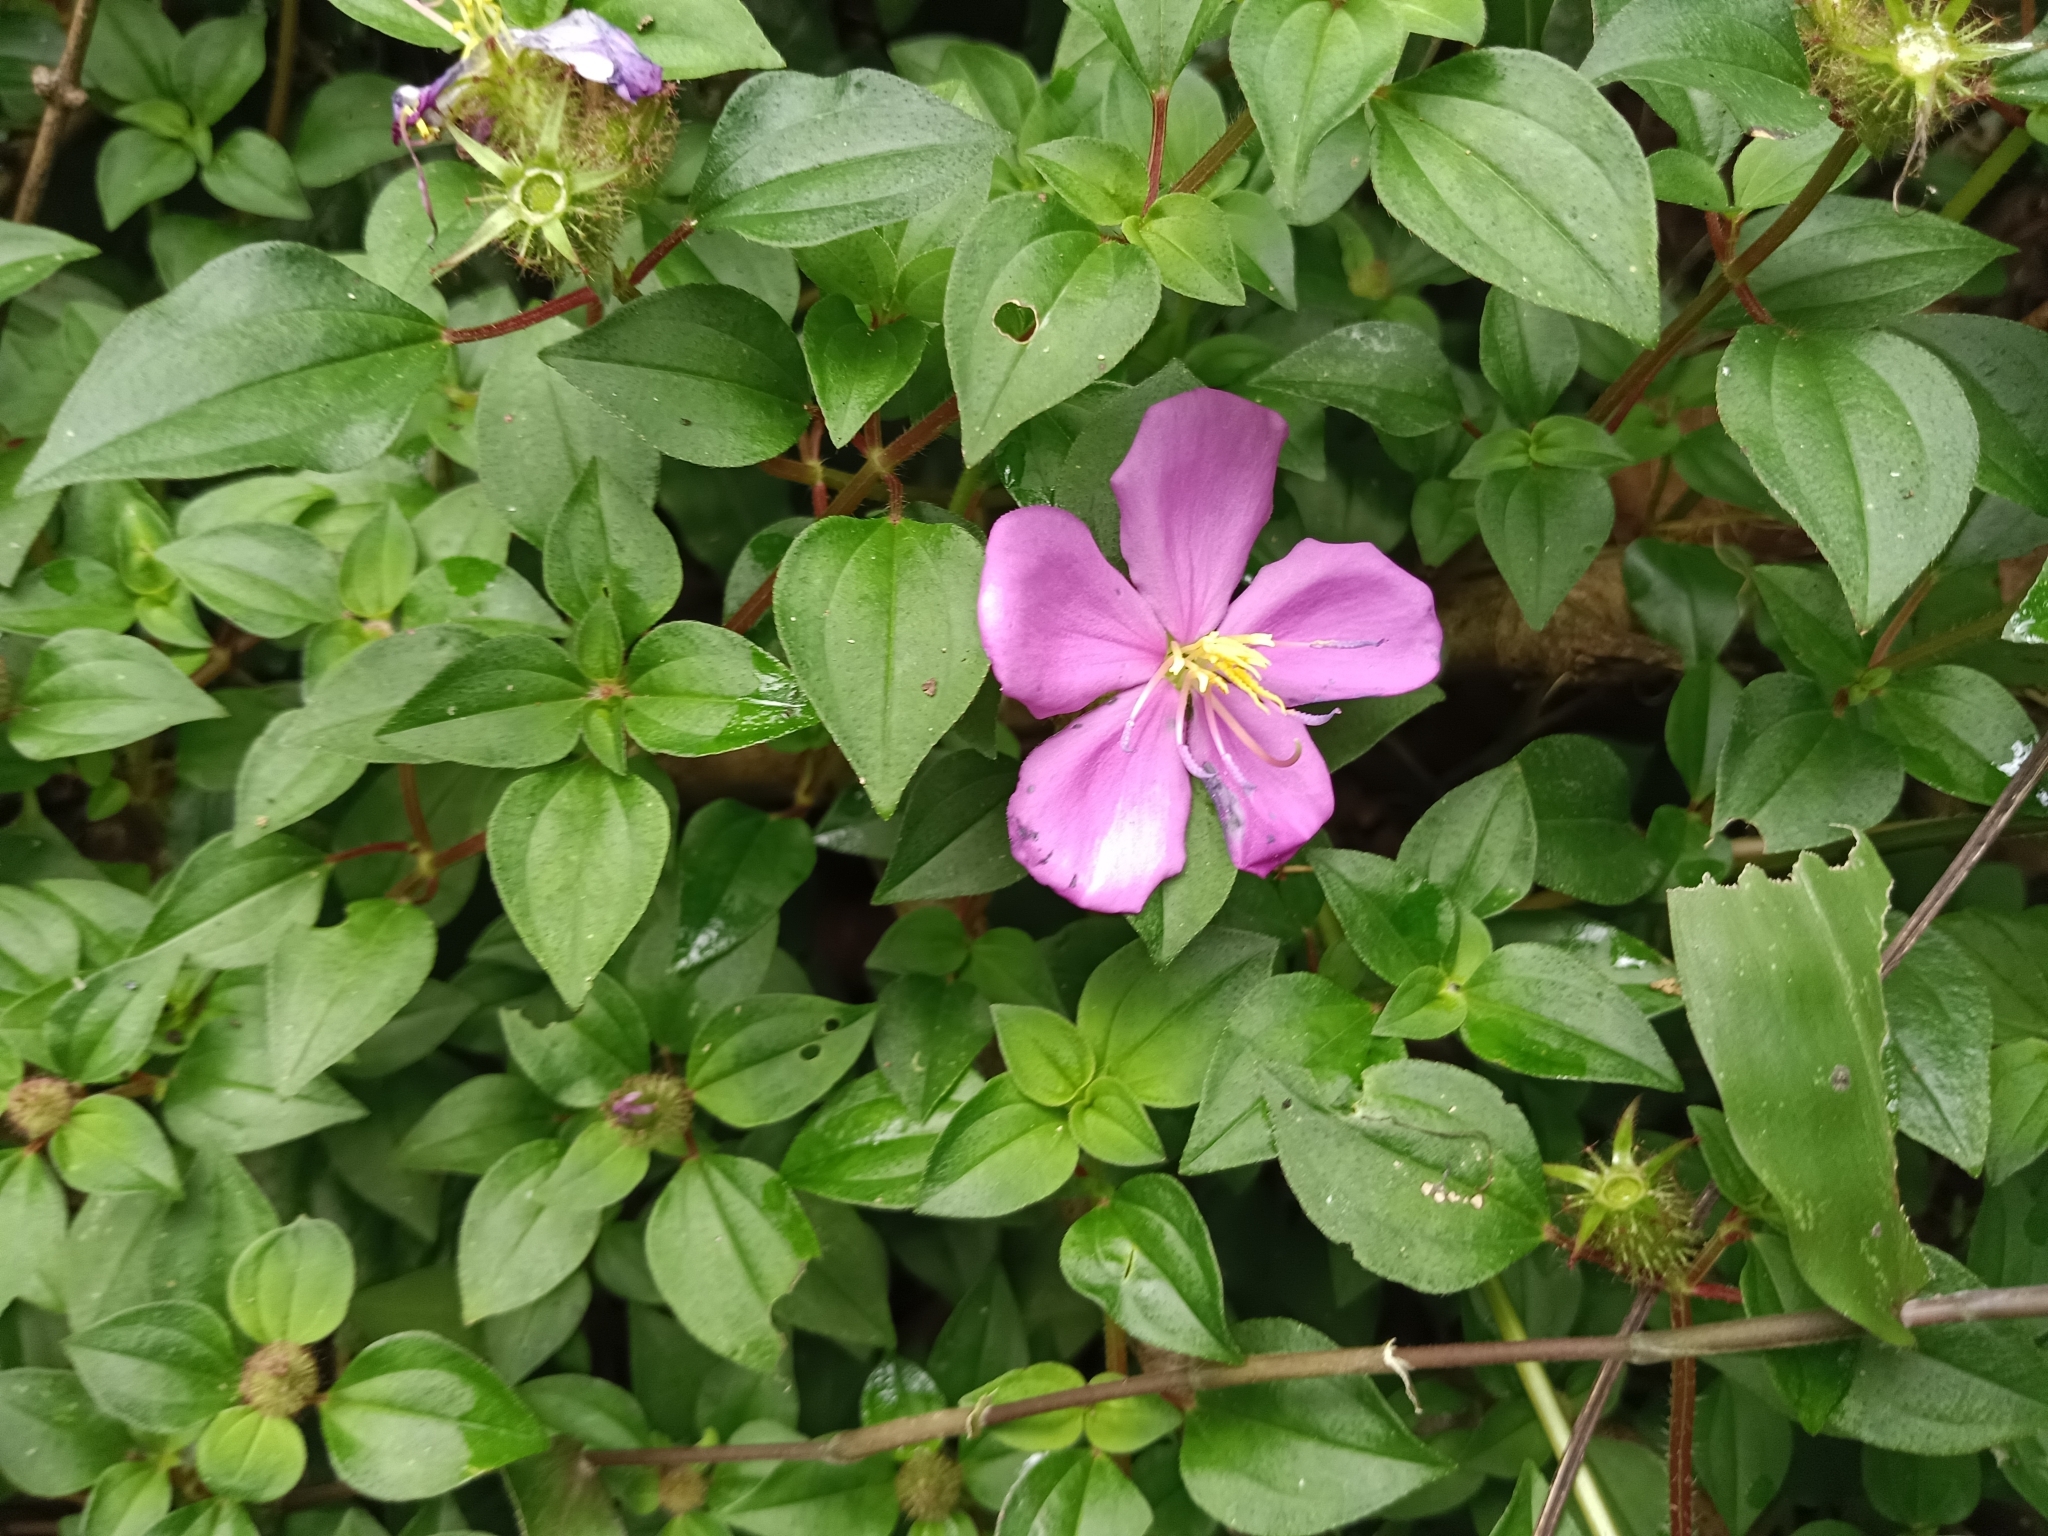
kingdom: Plantae
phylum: Tracheophyta
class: Magnoliopsida
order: Myrtales
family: Melastomataceae
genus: Heterotis
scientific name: Heterotis rotundifolia
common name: Pinklady
